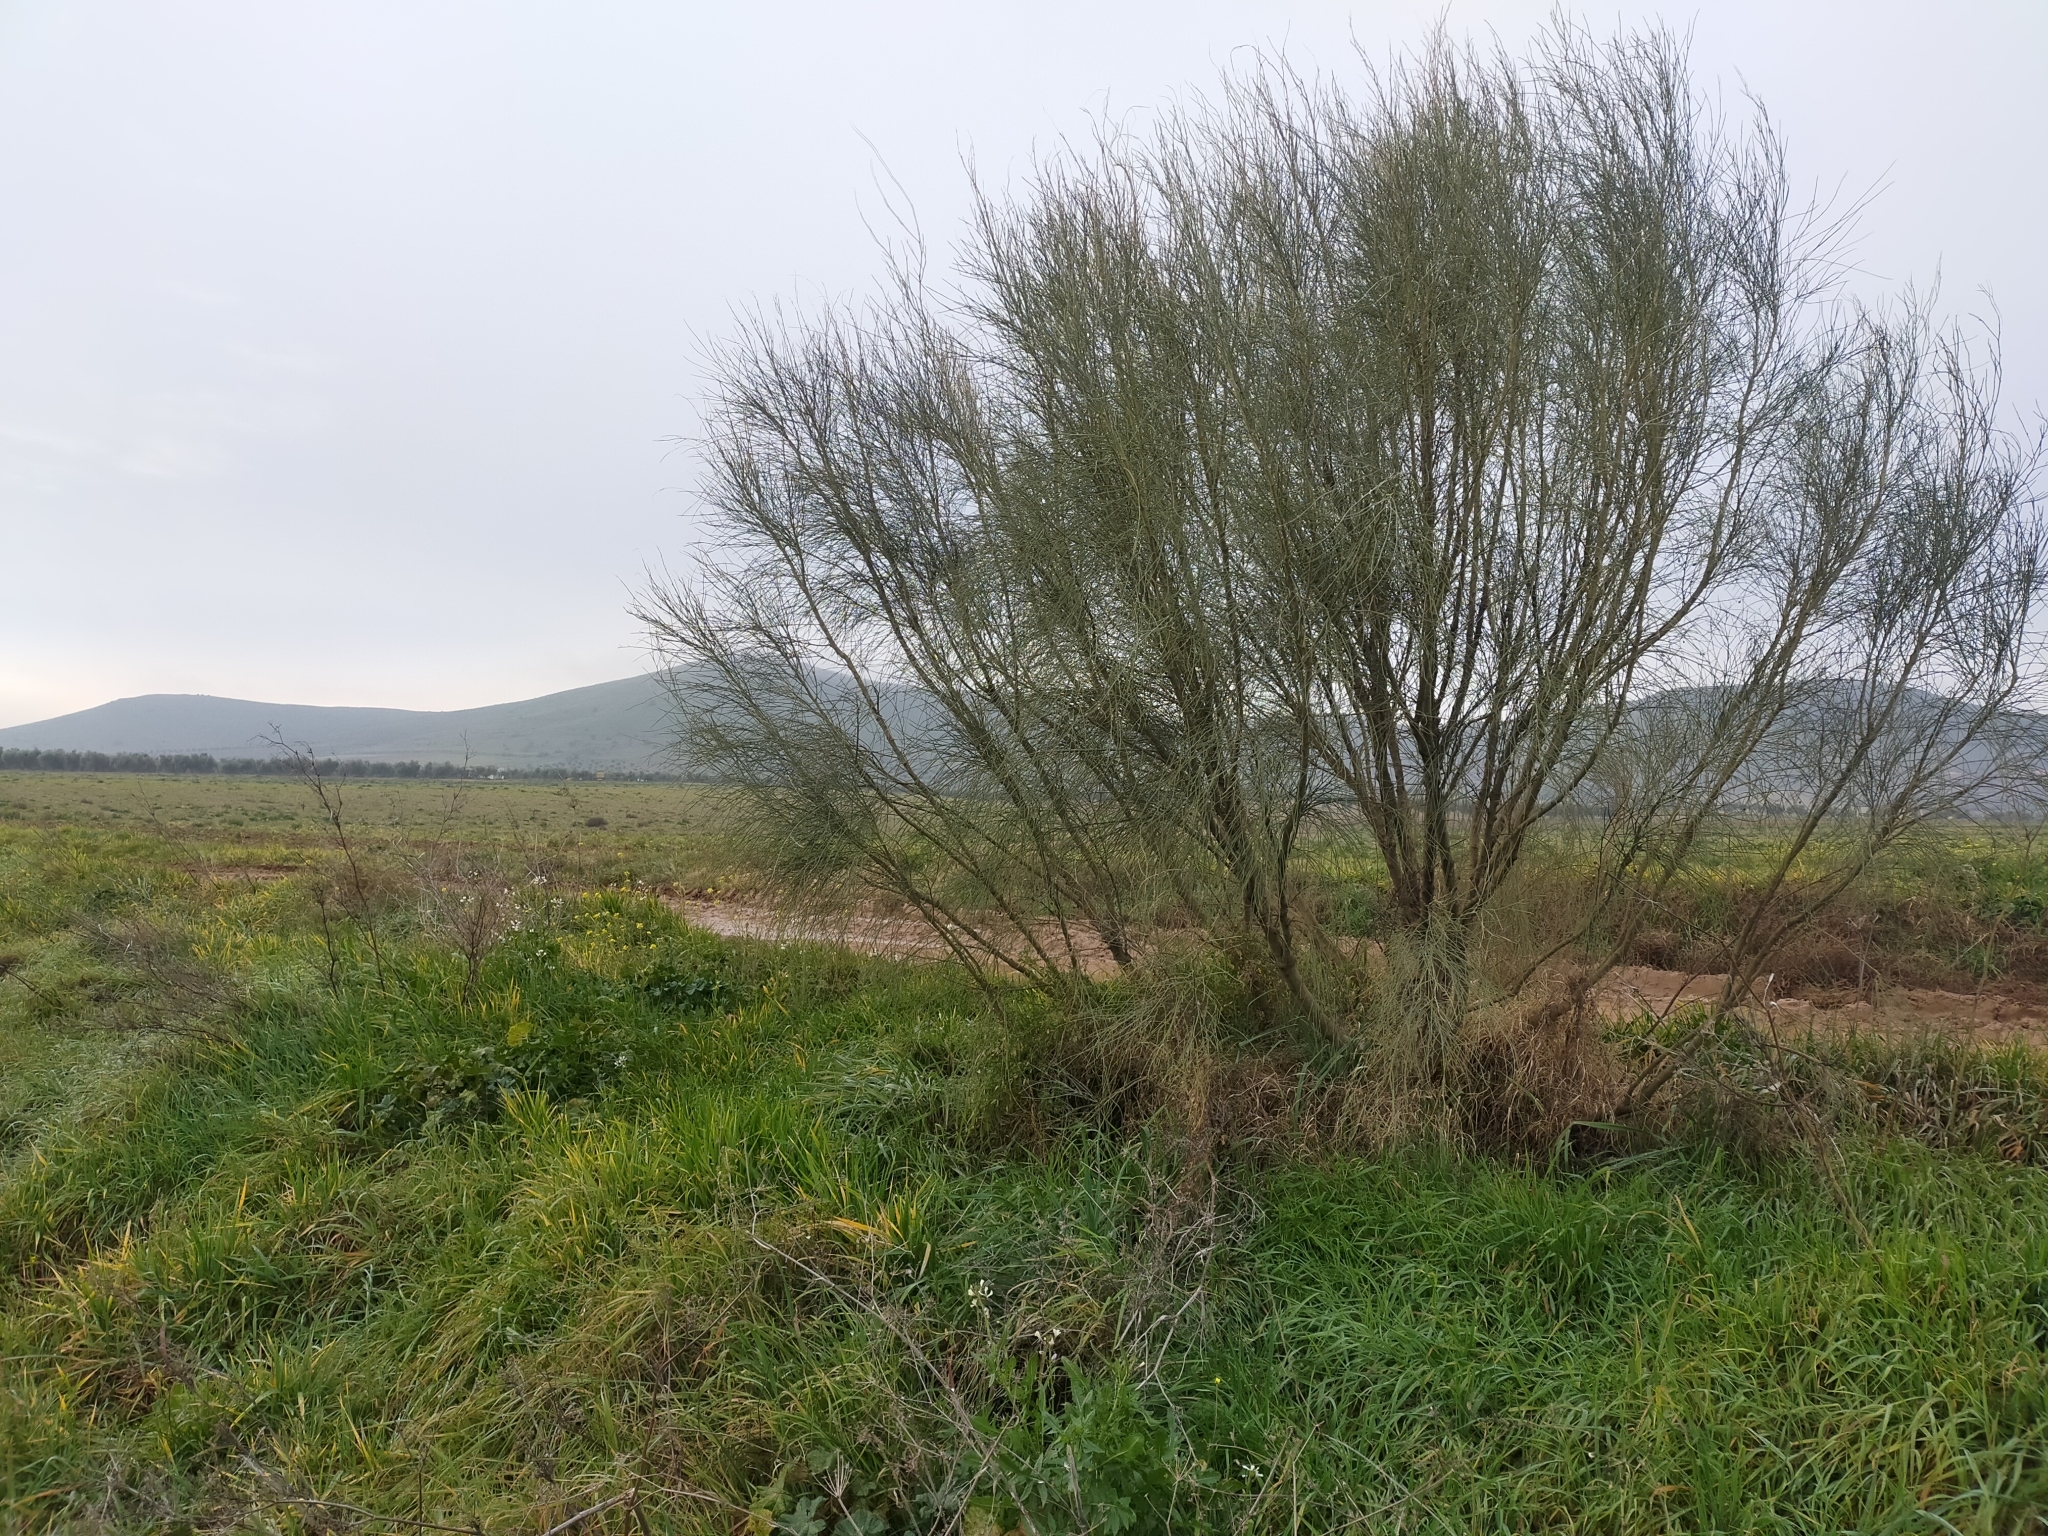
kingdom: Plantae
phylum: Tracheophyta
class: Magnoliopsida
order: Fabales
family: Fabaceae
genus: Retama
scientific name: Retama sphaerocarpa
